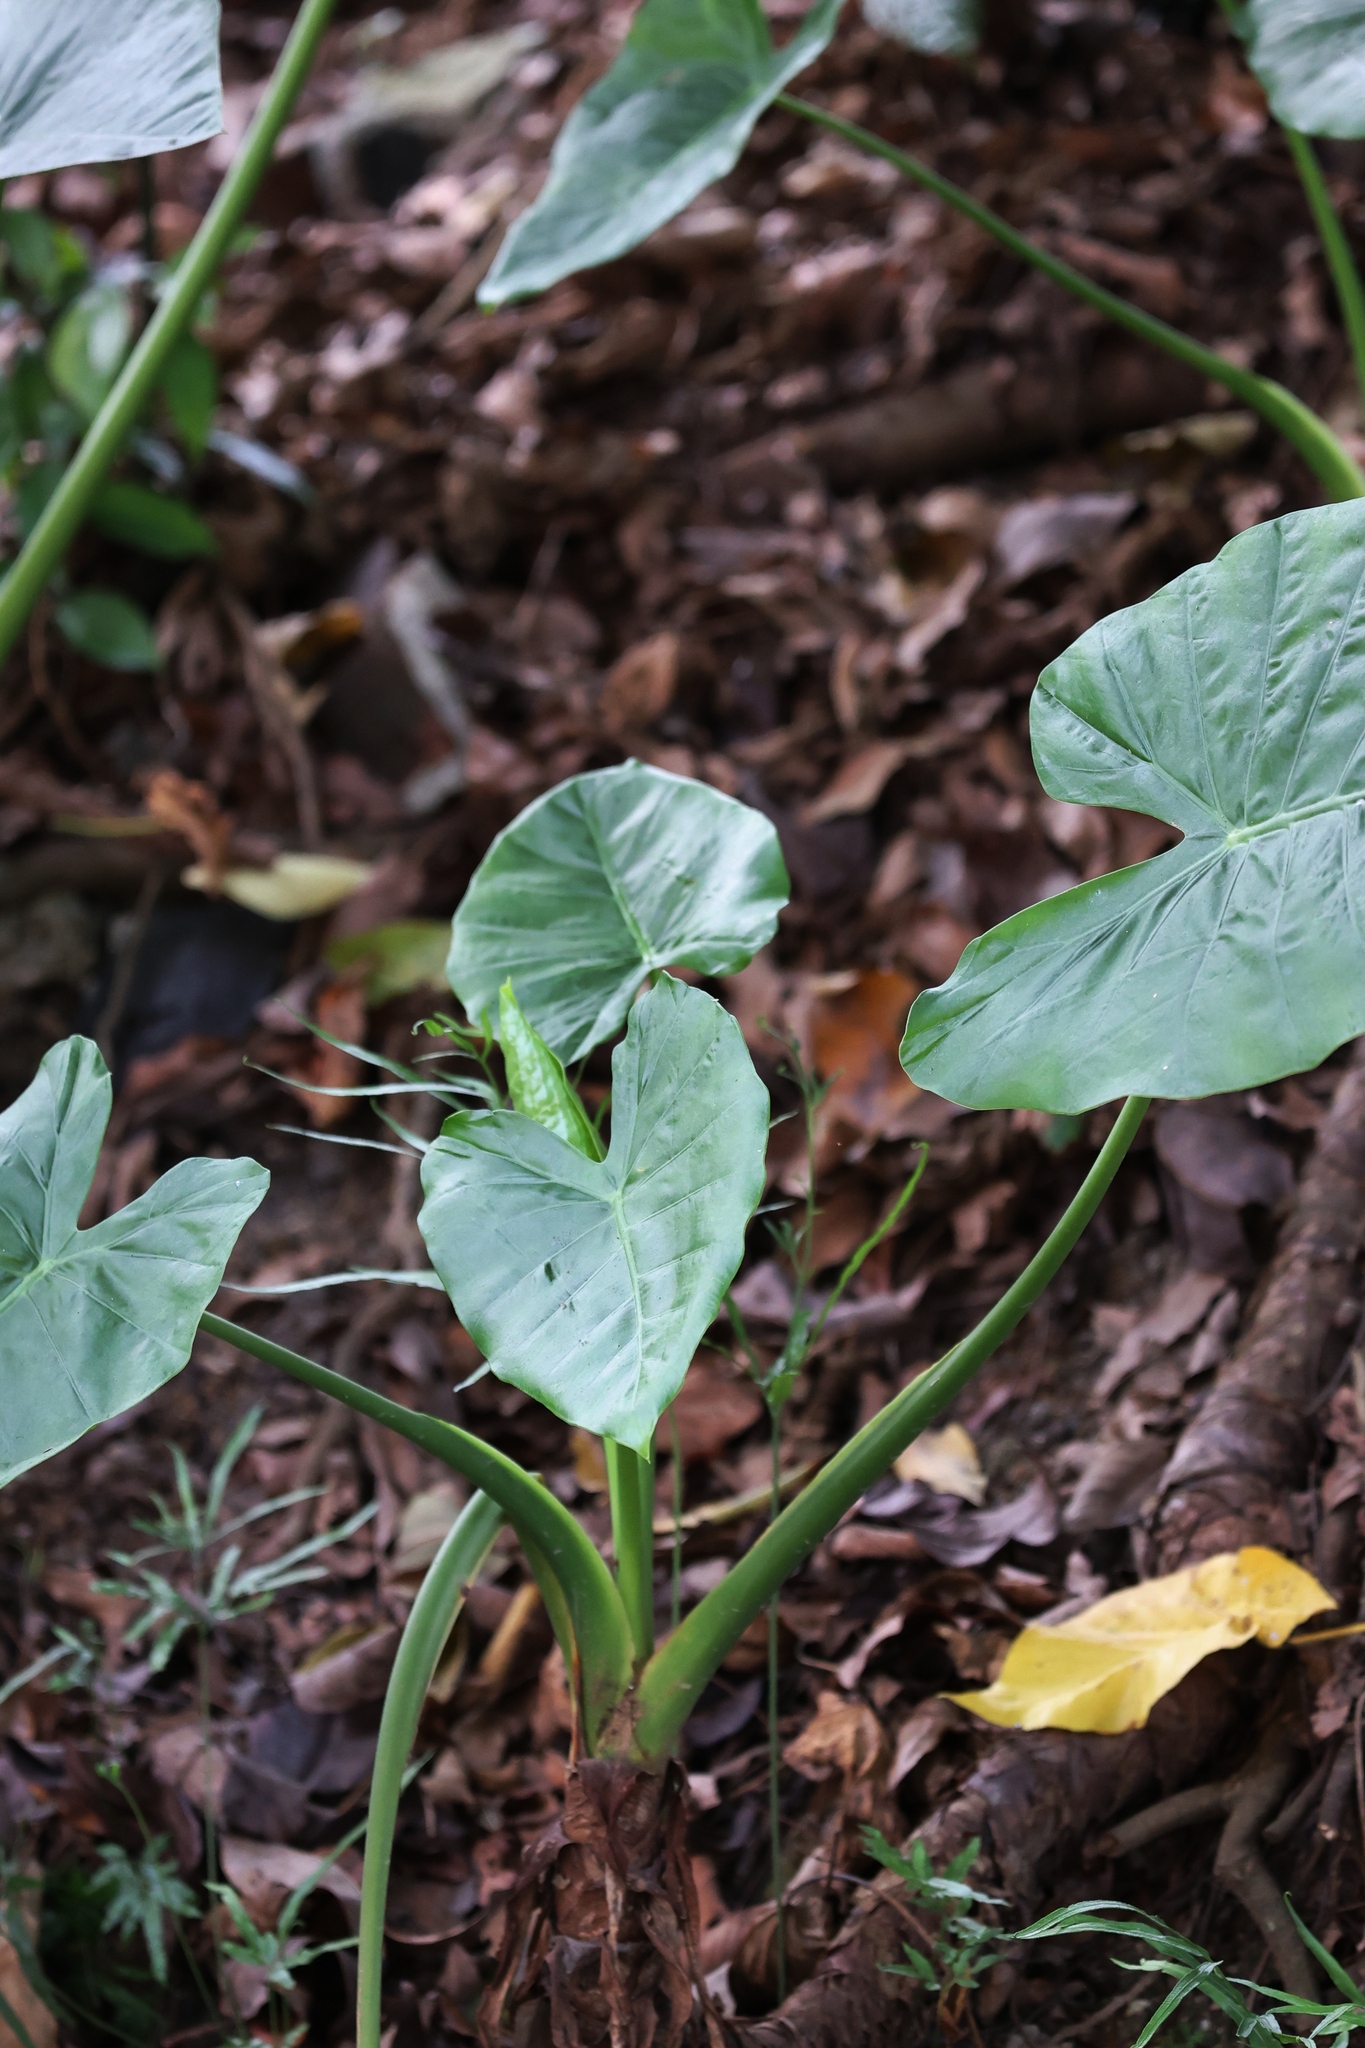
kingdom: Plantae
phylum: Tracheophyta
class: Liliopsida
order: Alismatales
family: Araceae
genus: Alocasia
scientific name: Alocasia odora
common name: Asian taro
